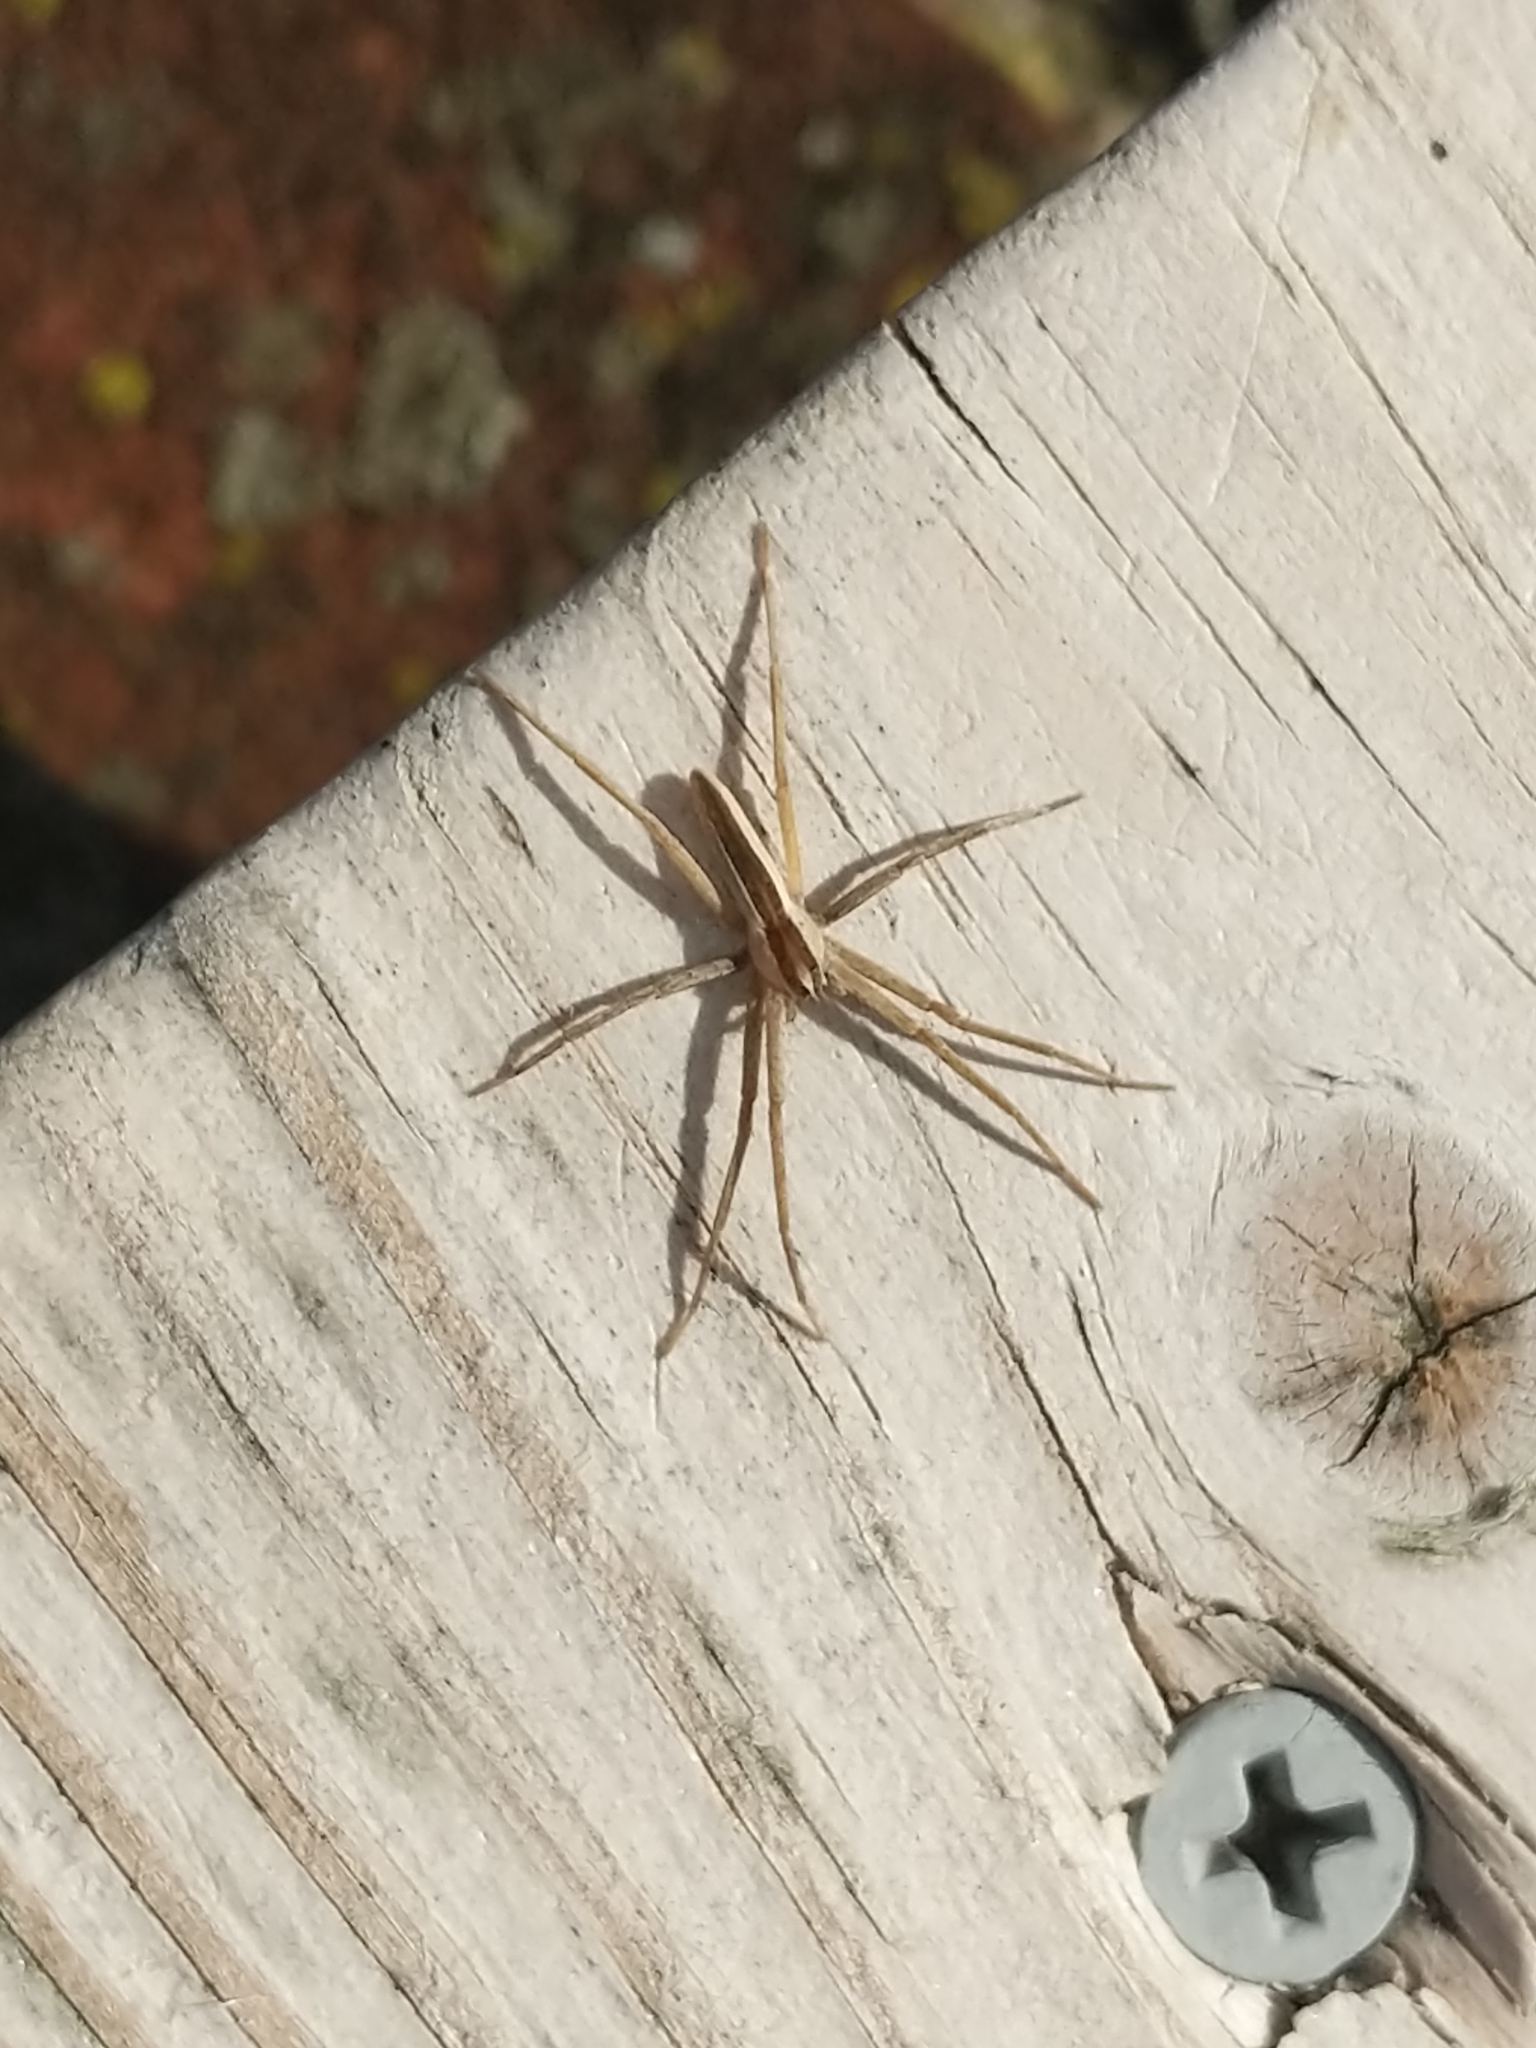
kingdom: Animalia
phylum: Arthropoda
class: Arachnida
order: Araneae
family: Pisauridae
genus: Pisaurina
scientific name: Pisaurina dubia
